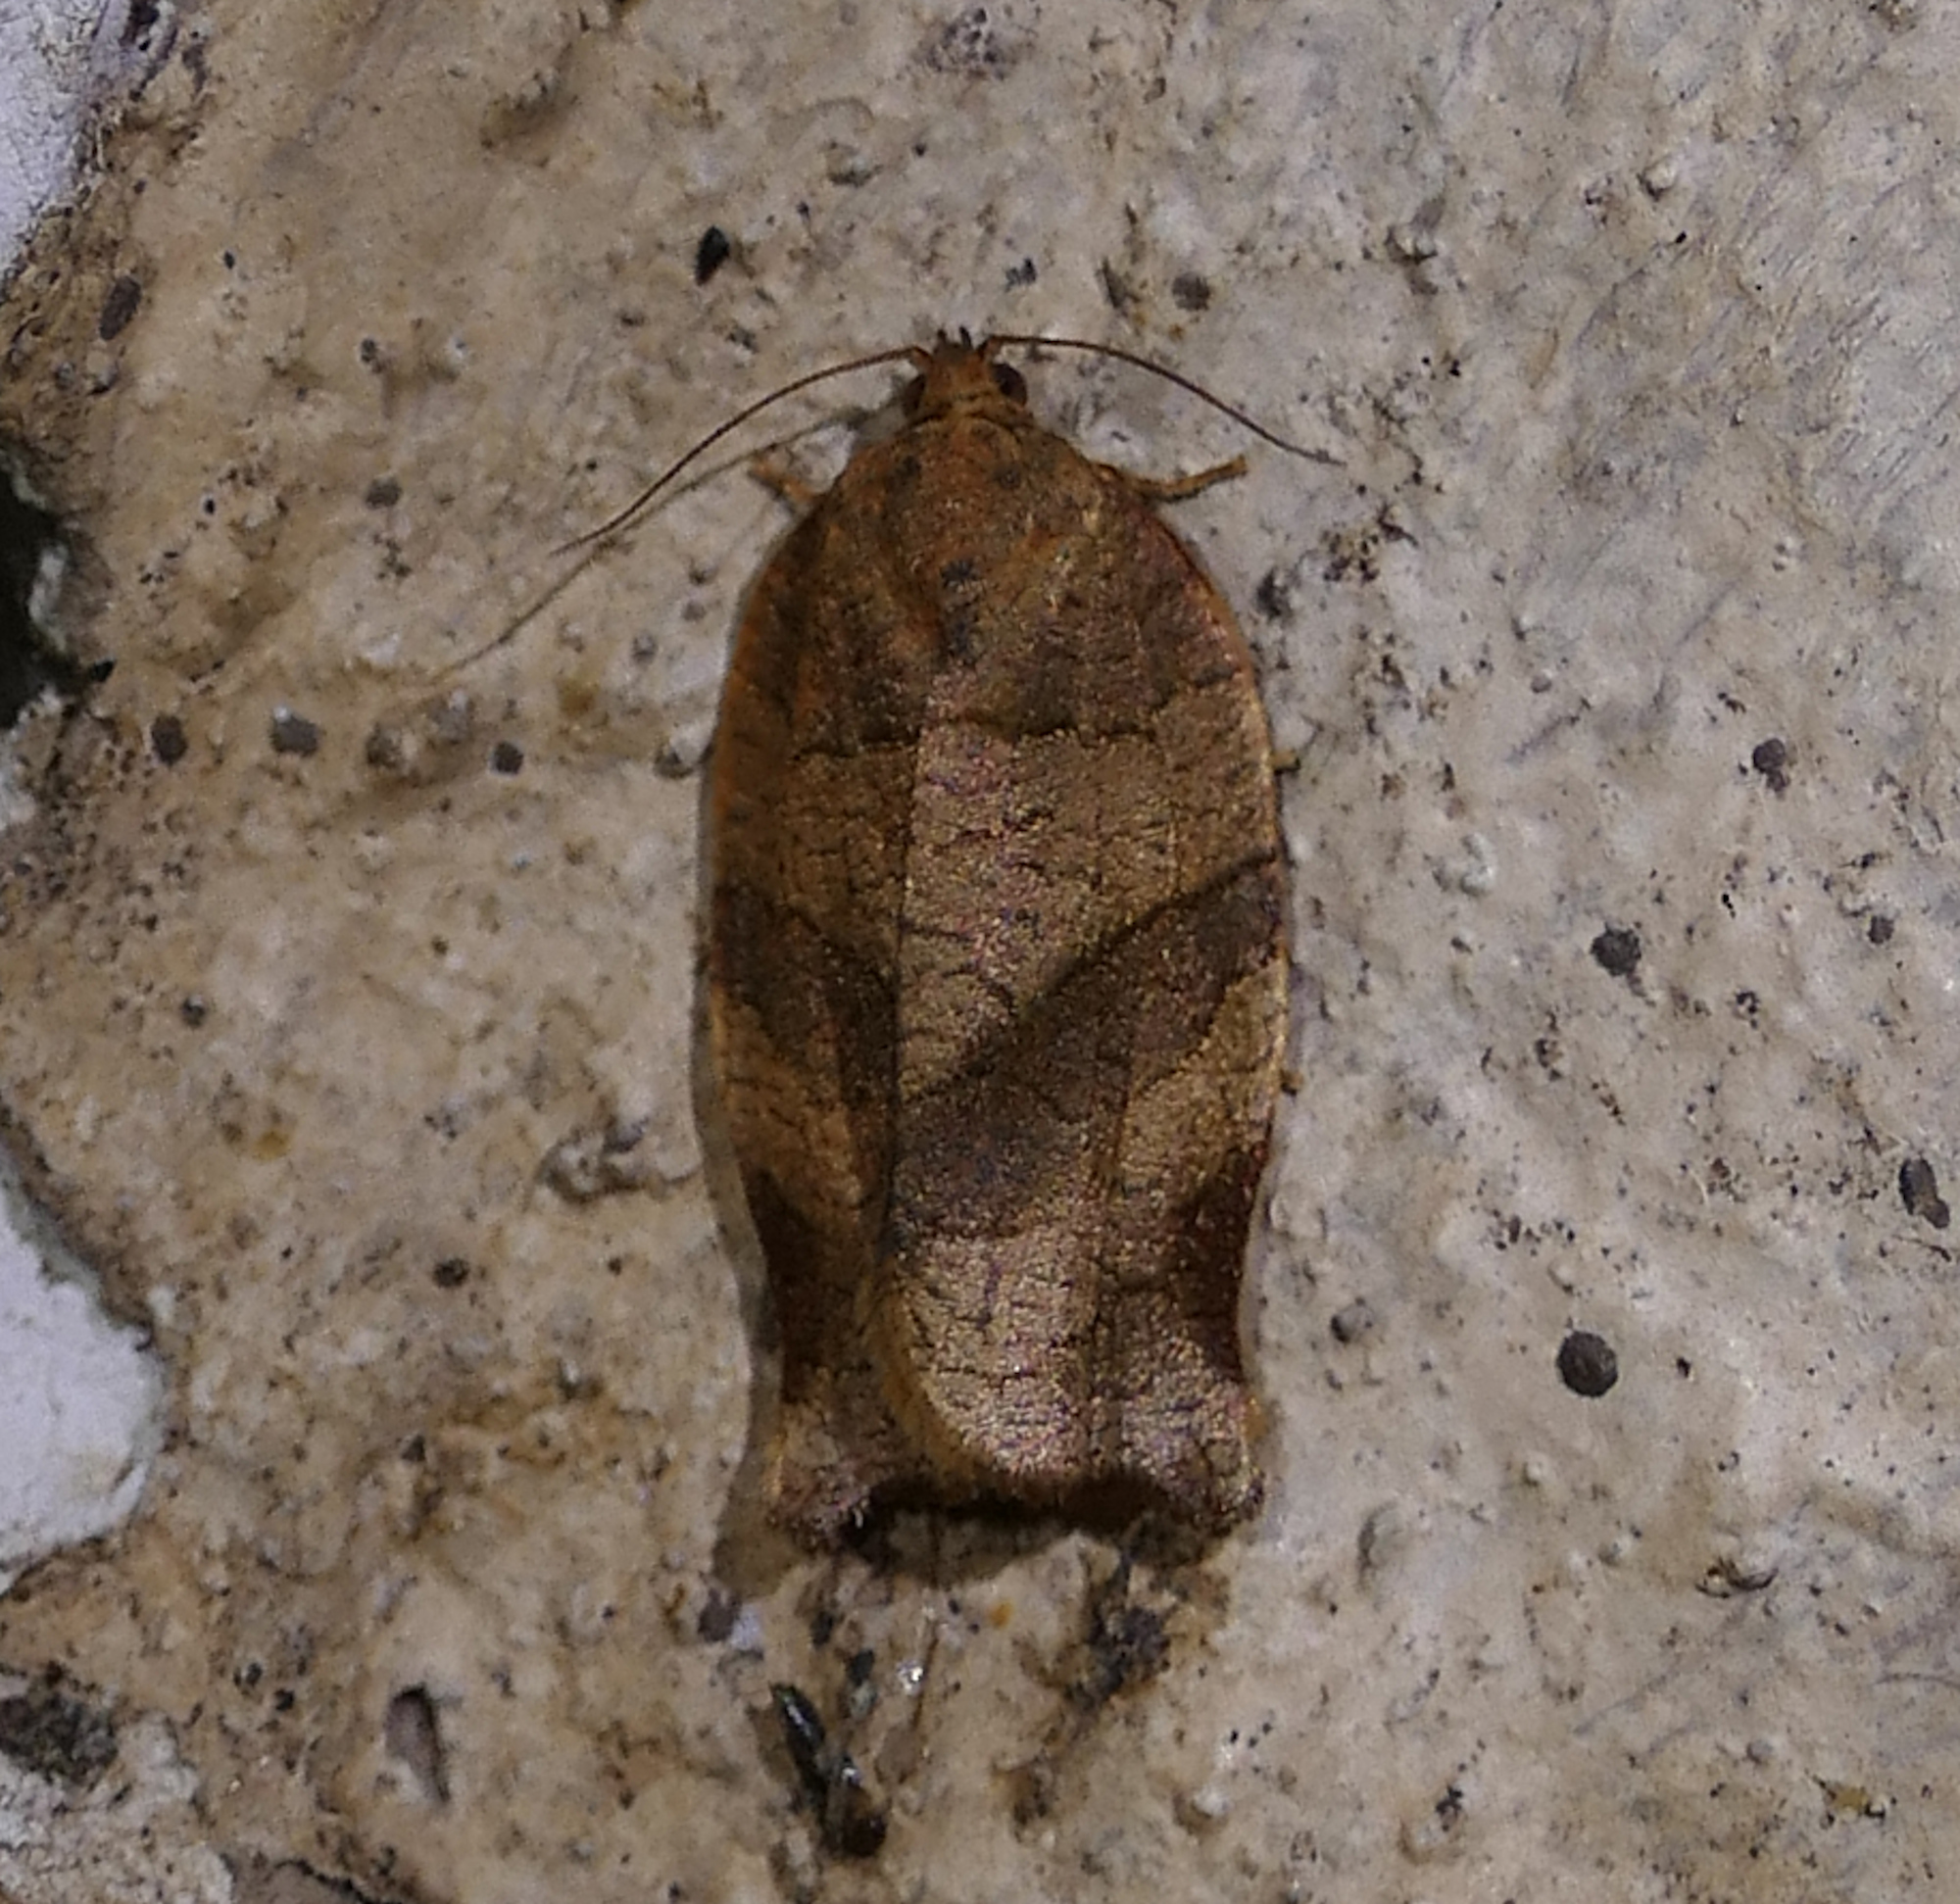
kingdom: Animalia
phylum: Arthropoda
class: Insecta
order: Lepidoptera
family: Tortricidae
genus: Choristoneura
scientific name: Choristoneura rosaceana
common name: Oblique-banded leafroller moth
